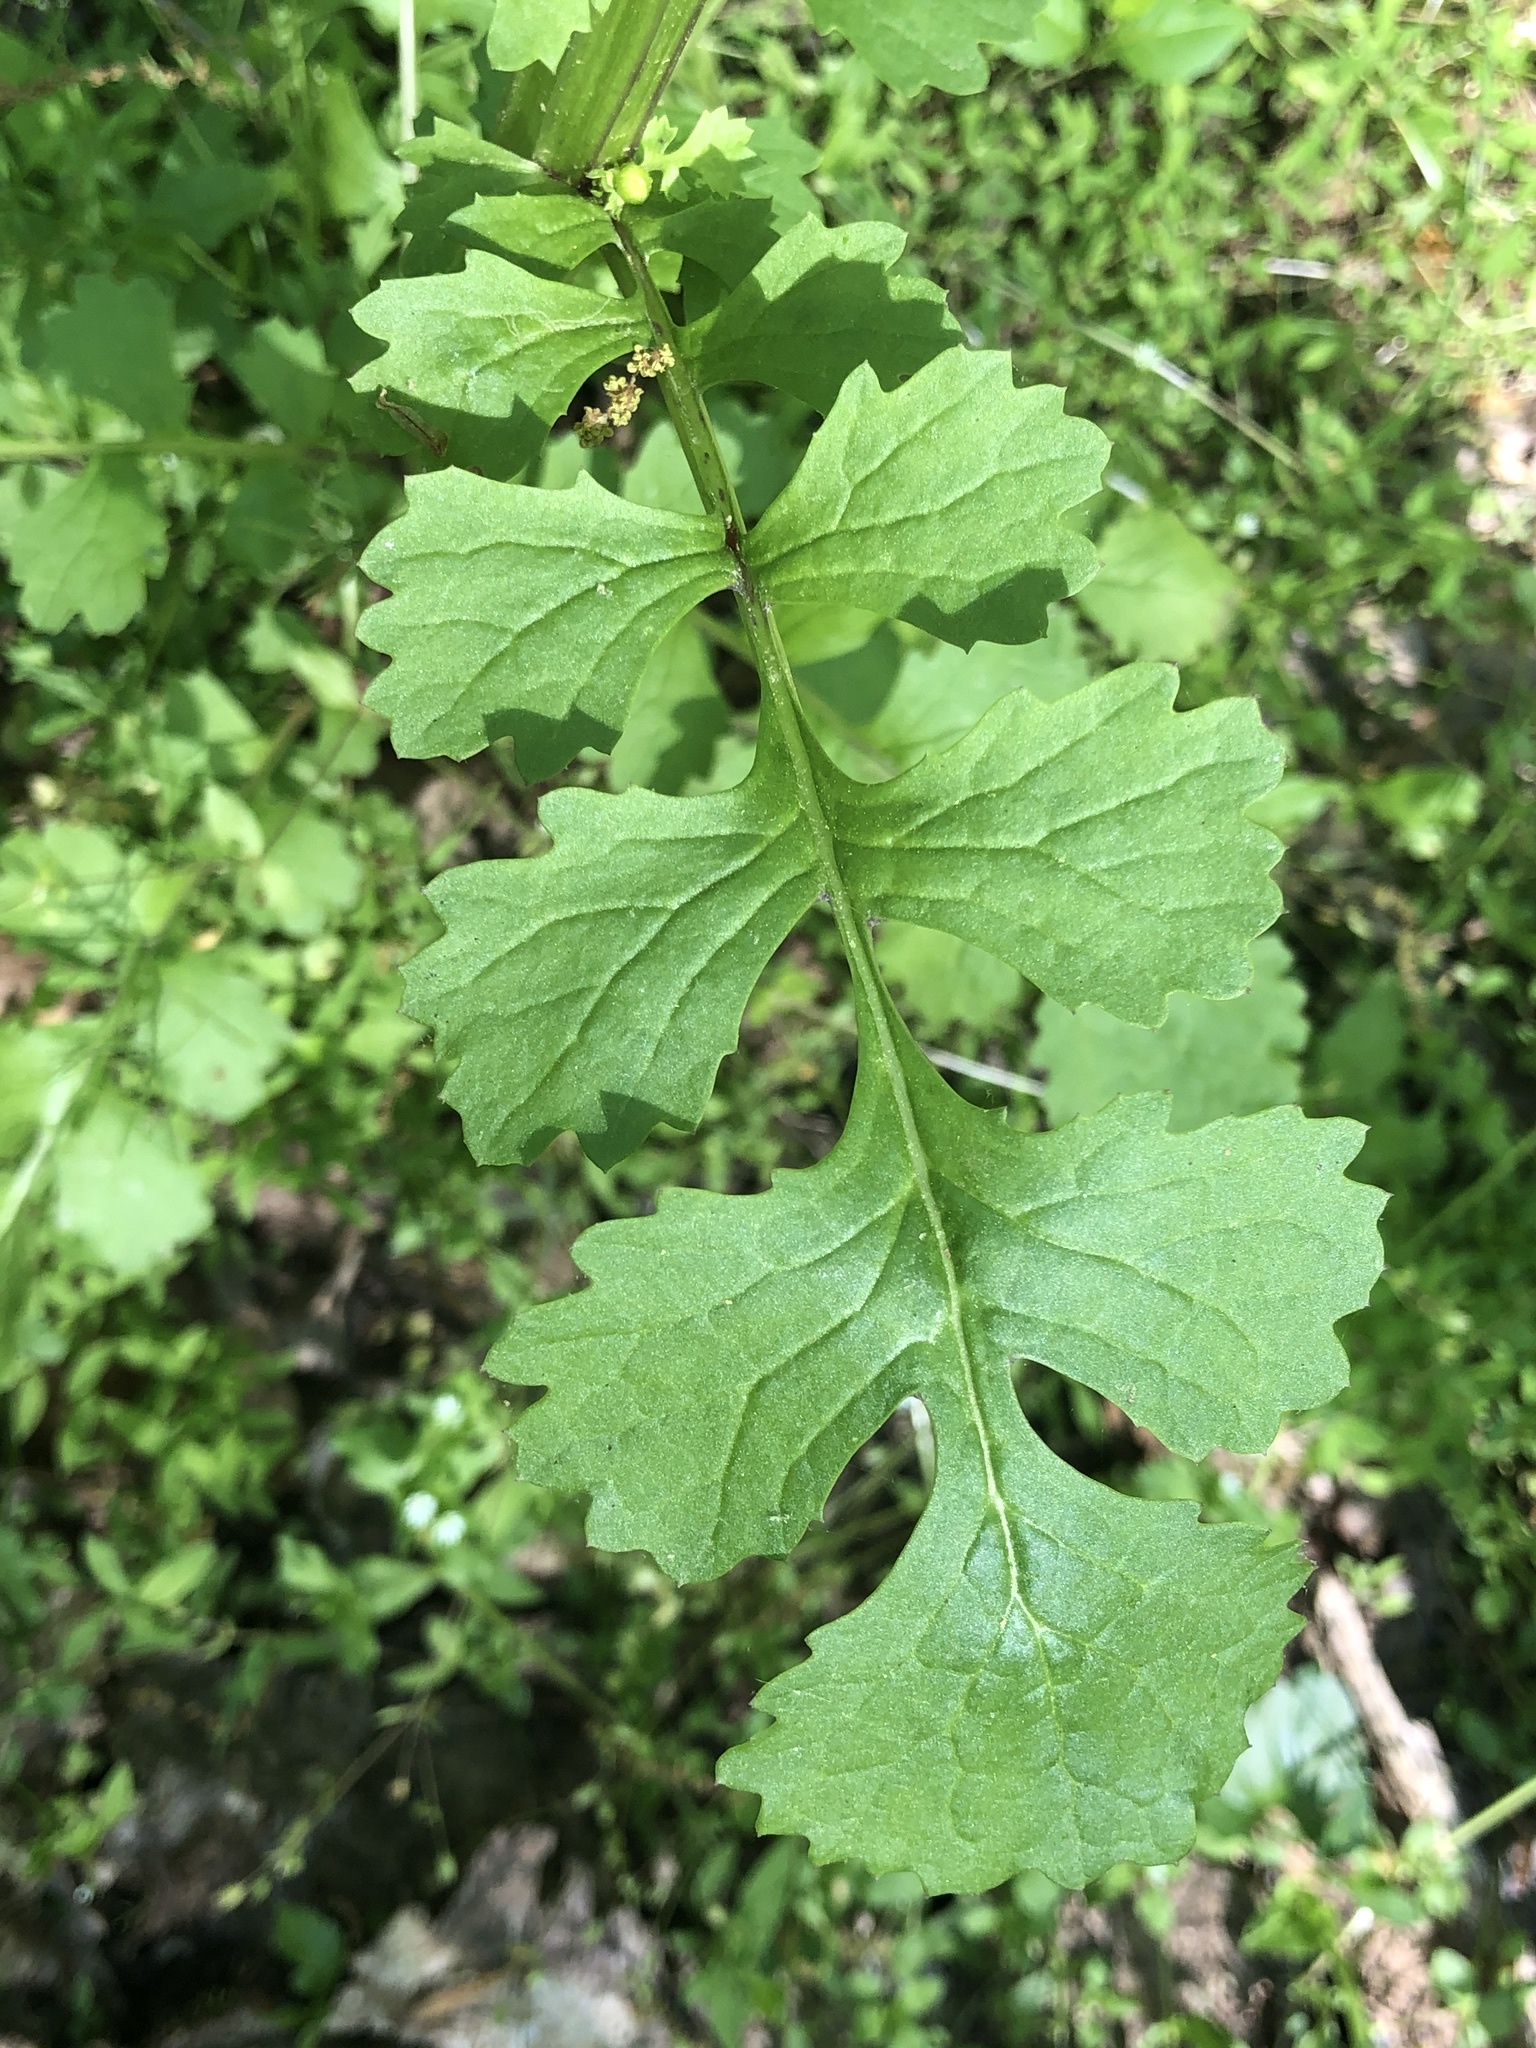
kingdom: Plantae
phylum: Tracheophyta
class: Magnoliopsida
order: Asterales
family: Asteraceae
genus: Packera
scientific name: Packera glabella
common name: Butterweed
